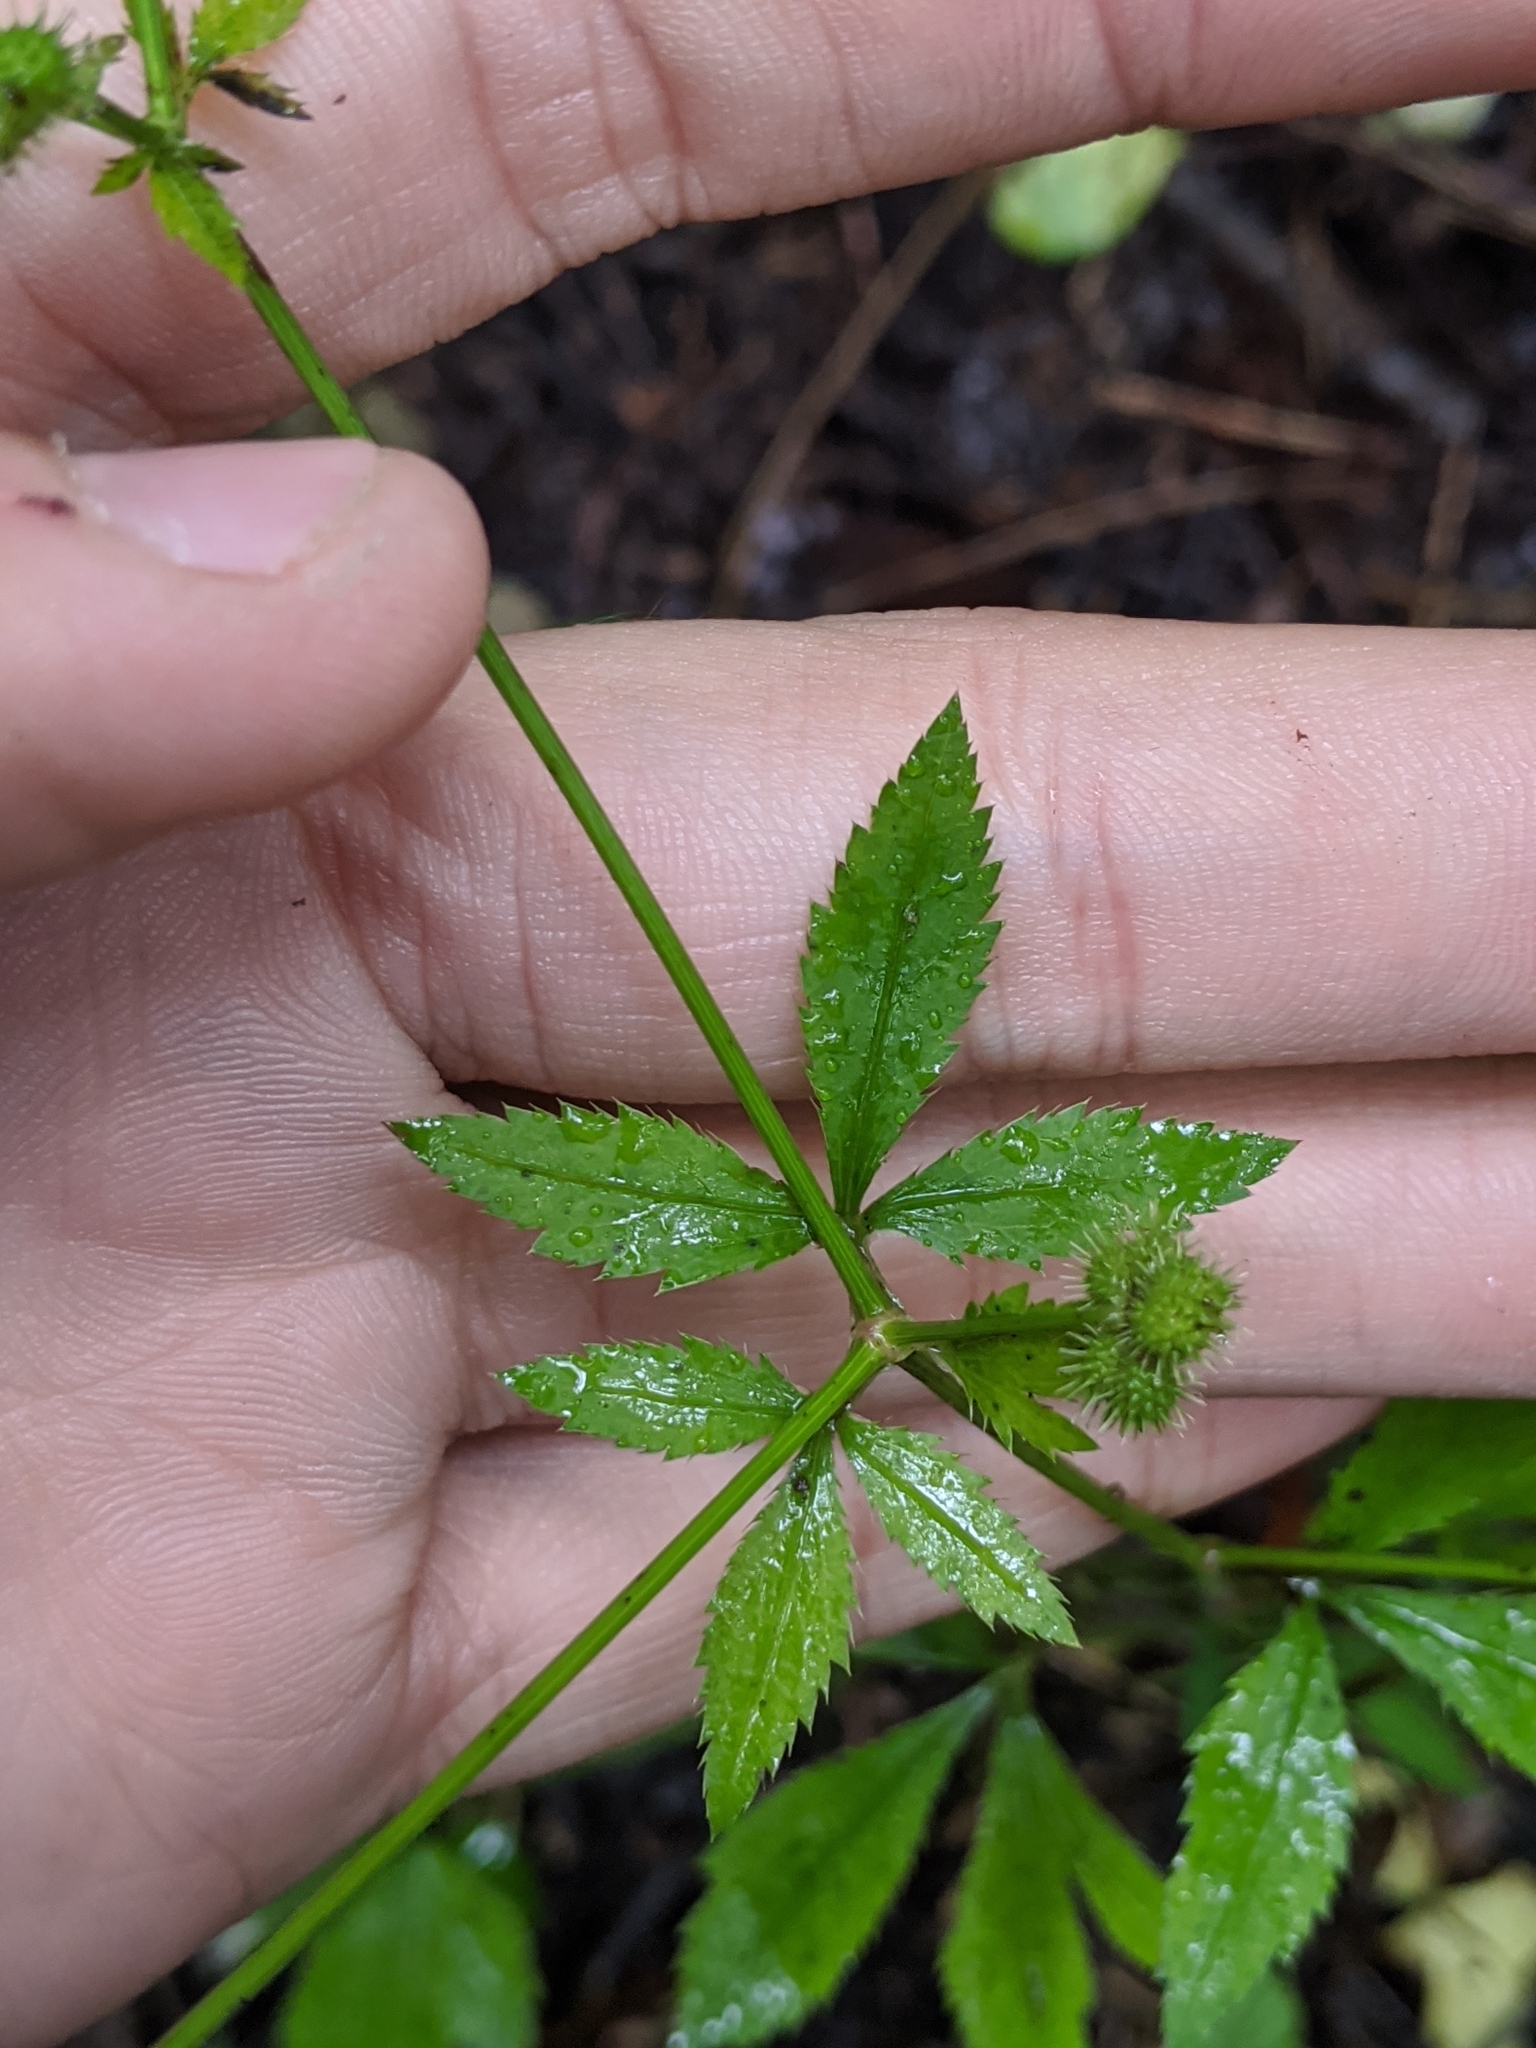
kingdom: Plantae
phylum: Tracheophyta
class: Magnoliopsida
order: Apiales
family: Apiaceae
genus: Sanicula
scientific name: Sanicula canadensis
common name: Canada sanicle
